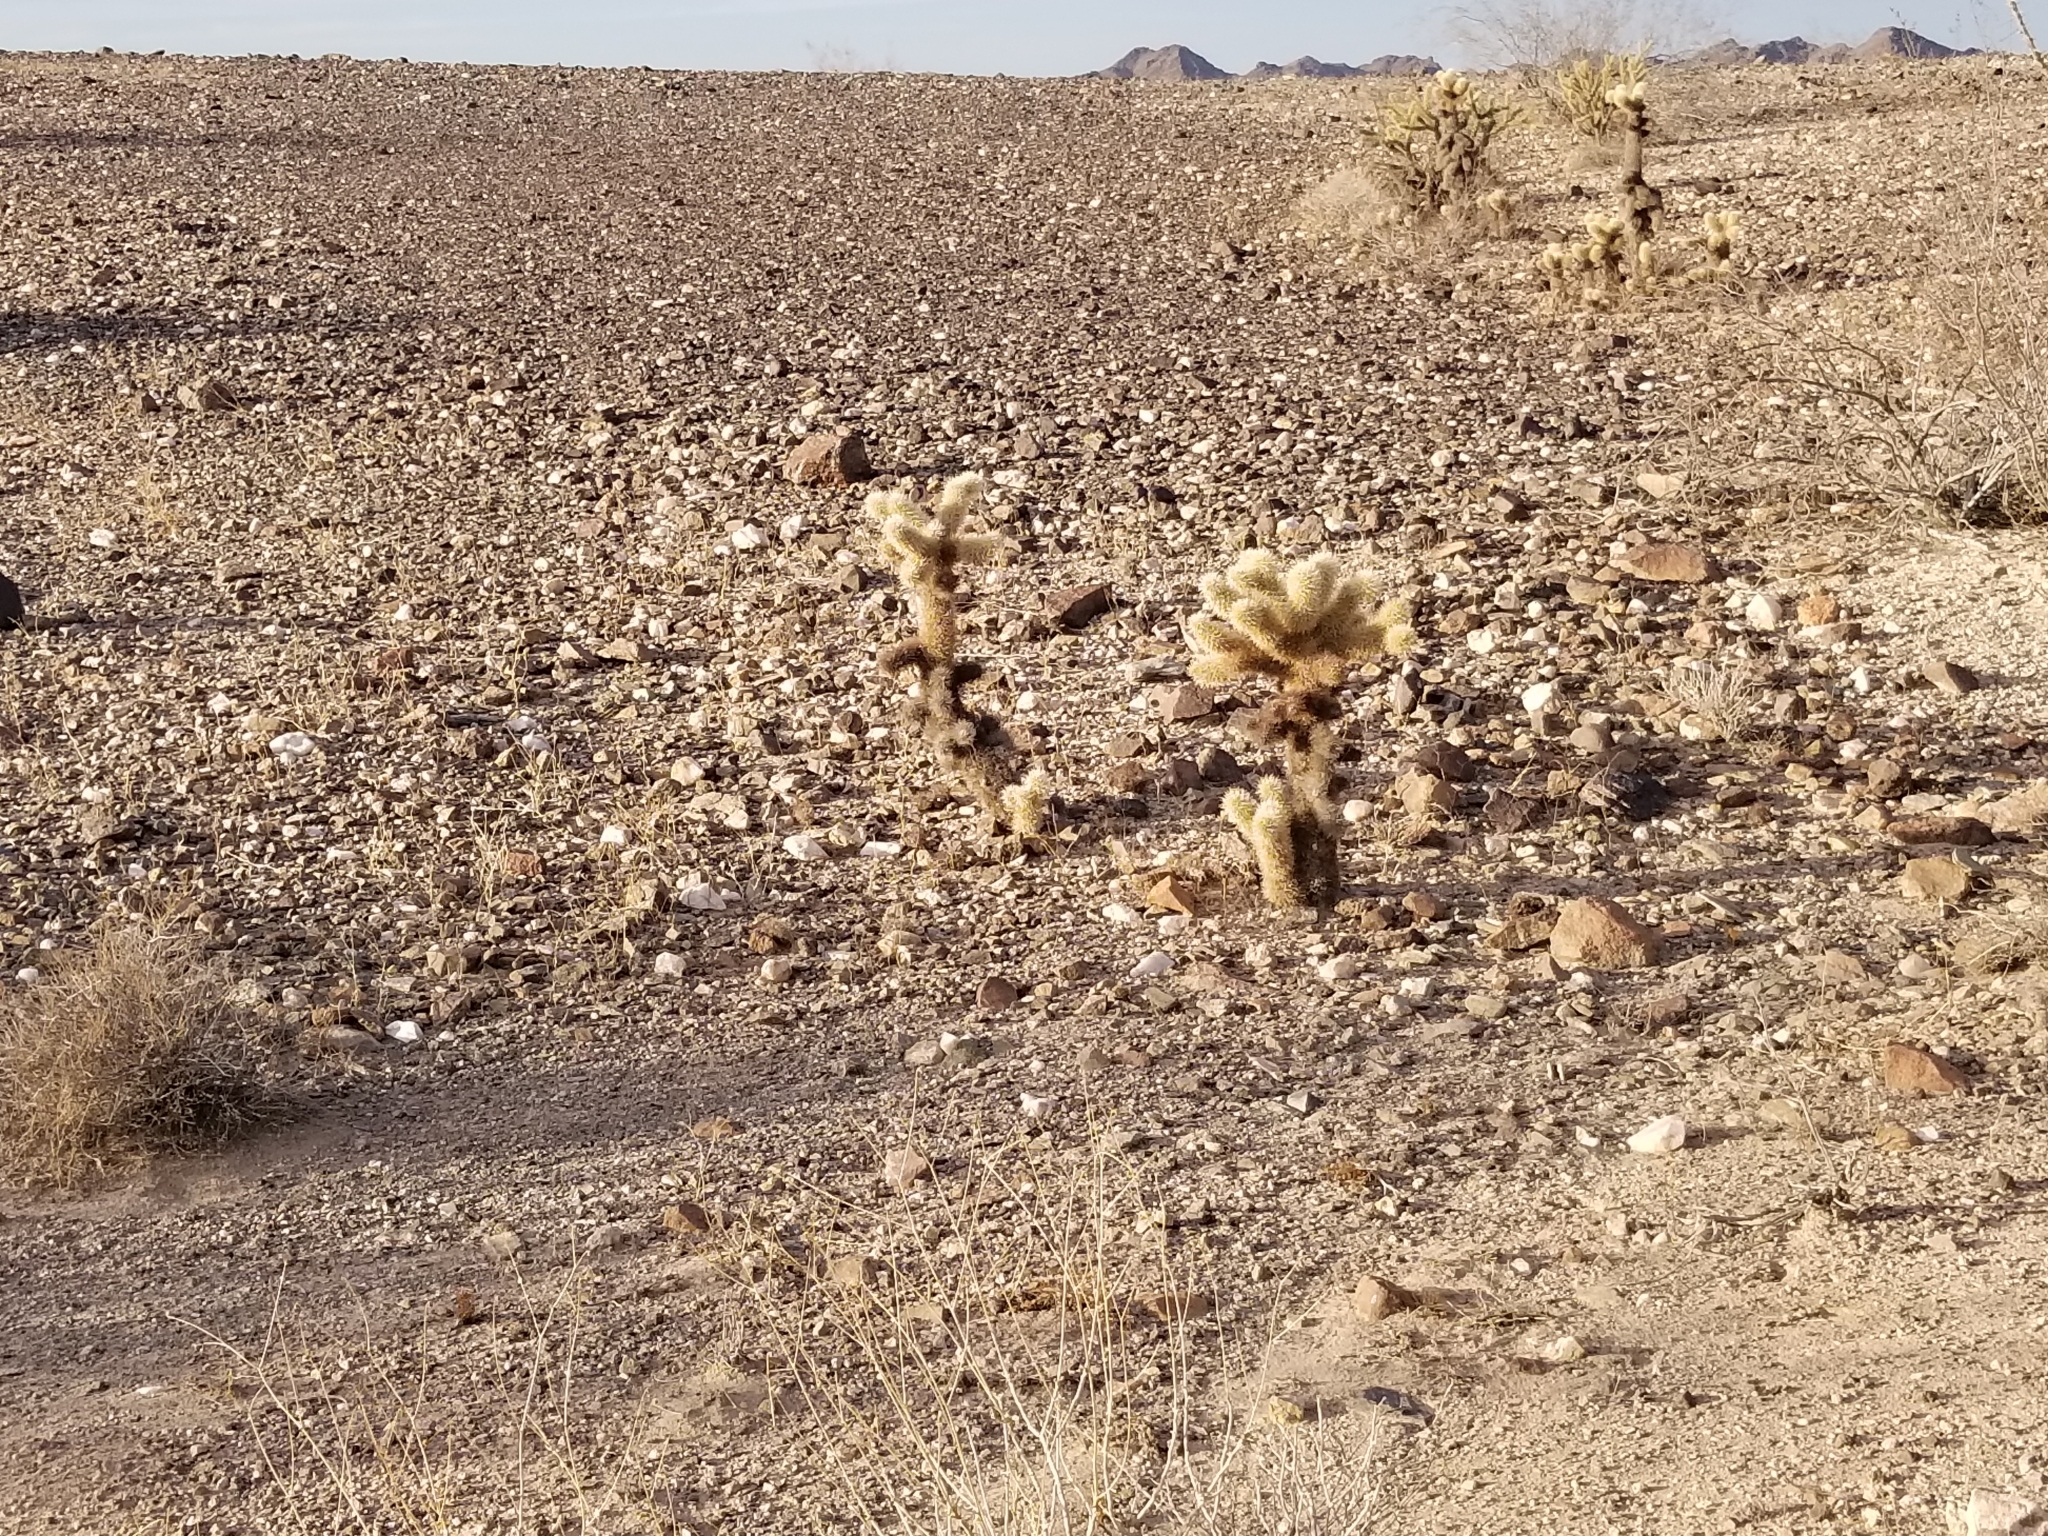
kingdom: Plantae
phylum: Tracheophyta
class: Magnoliopsida
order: Caryophyllales
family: Cactaceae
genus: Cylindropuntia
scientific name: Cylindropuntia fosbergii
